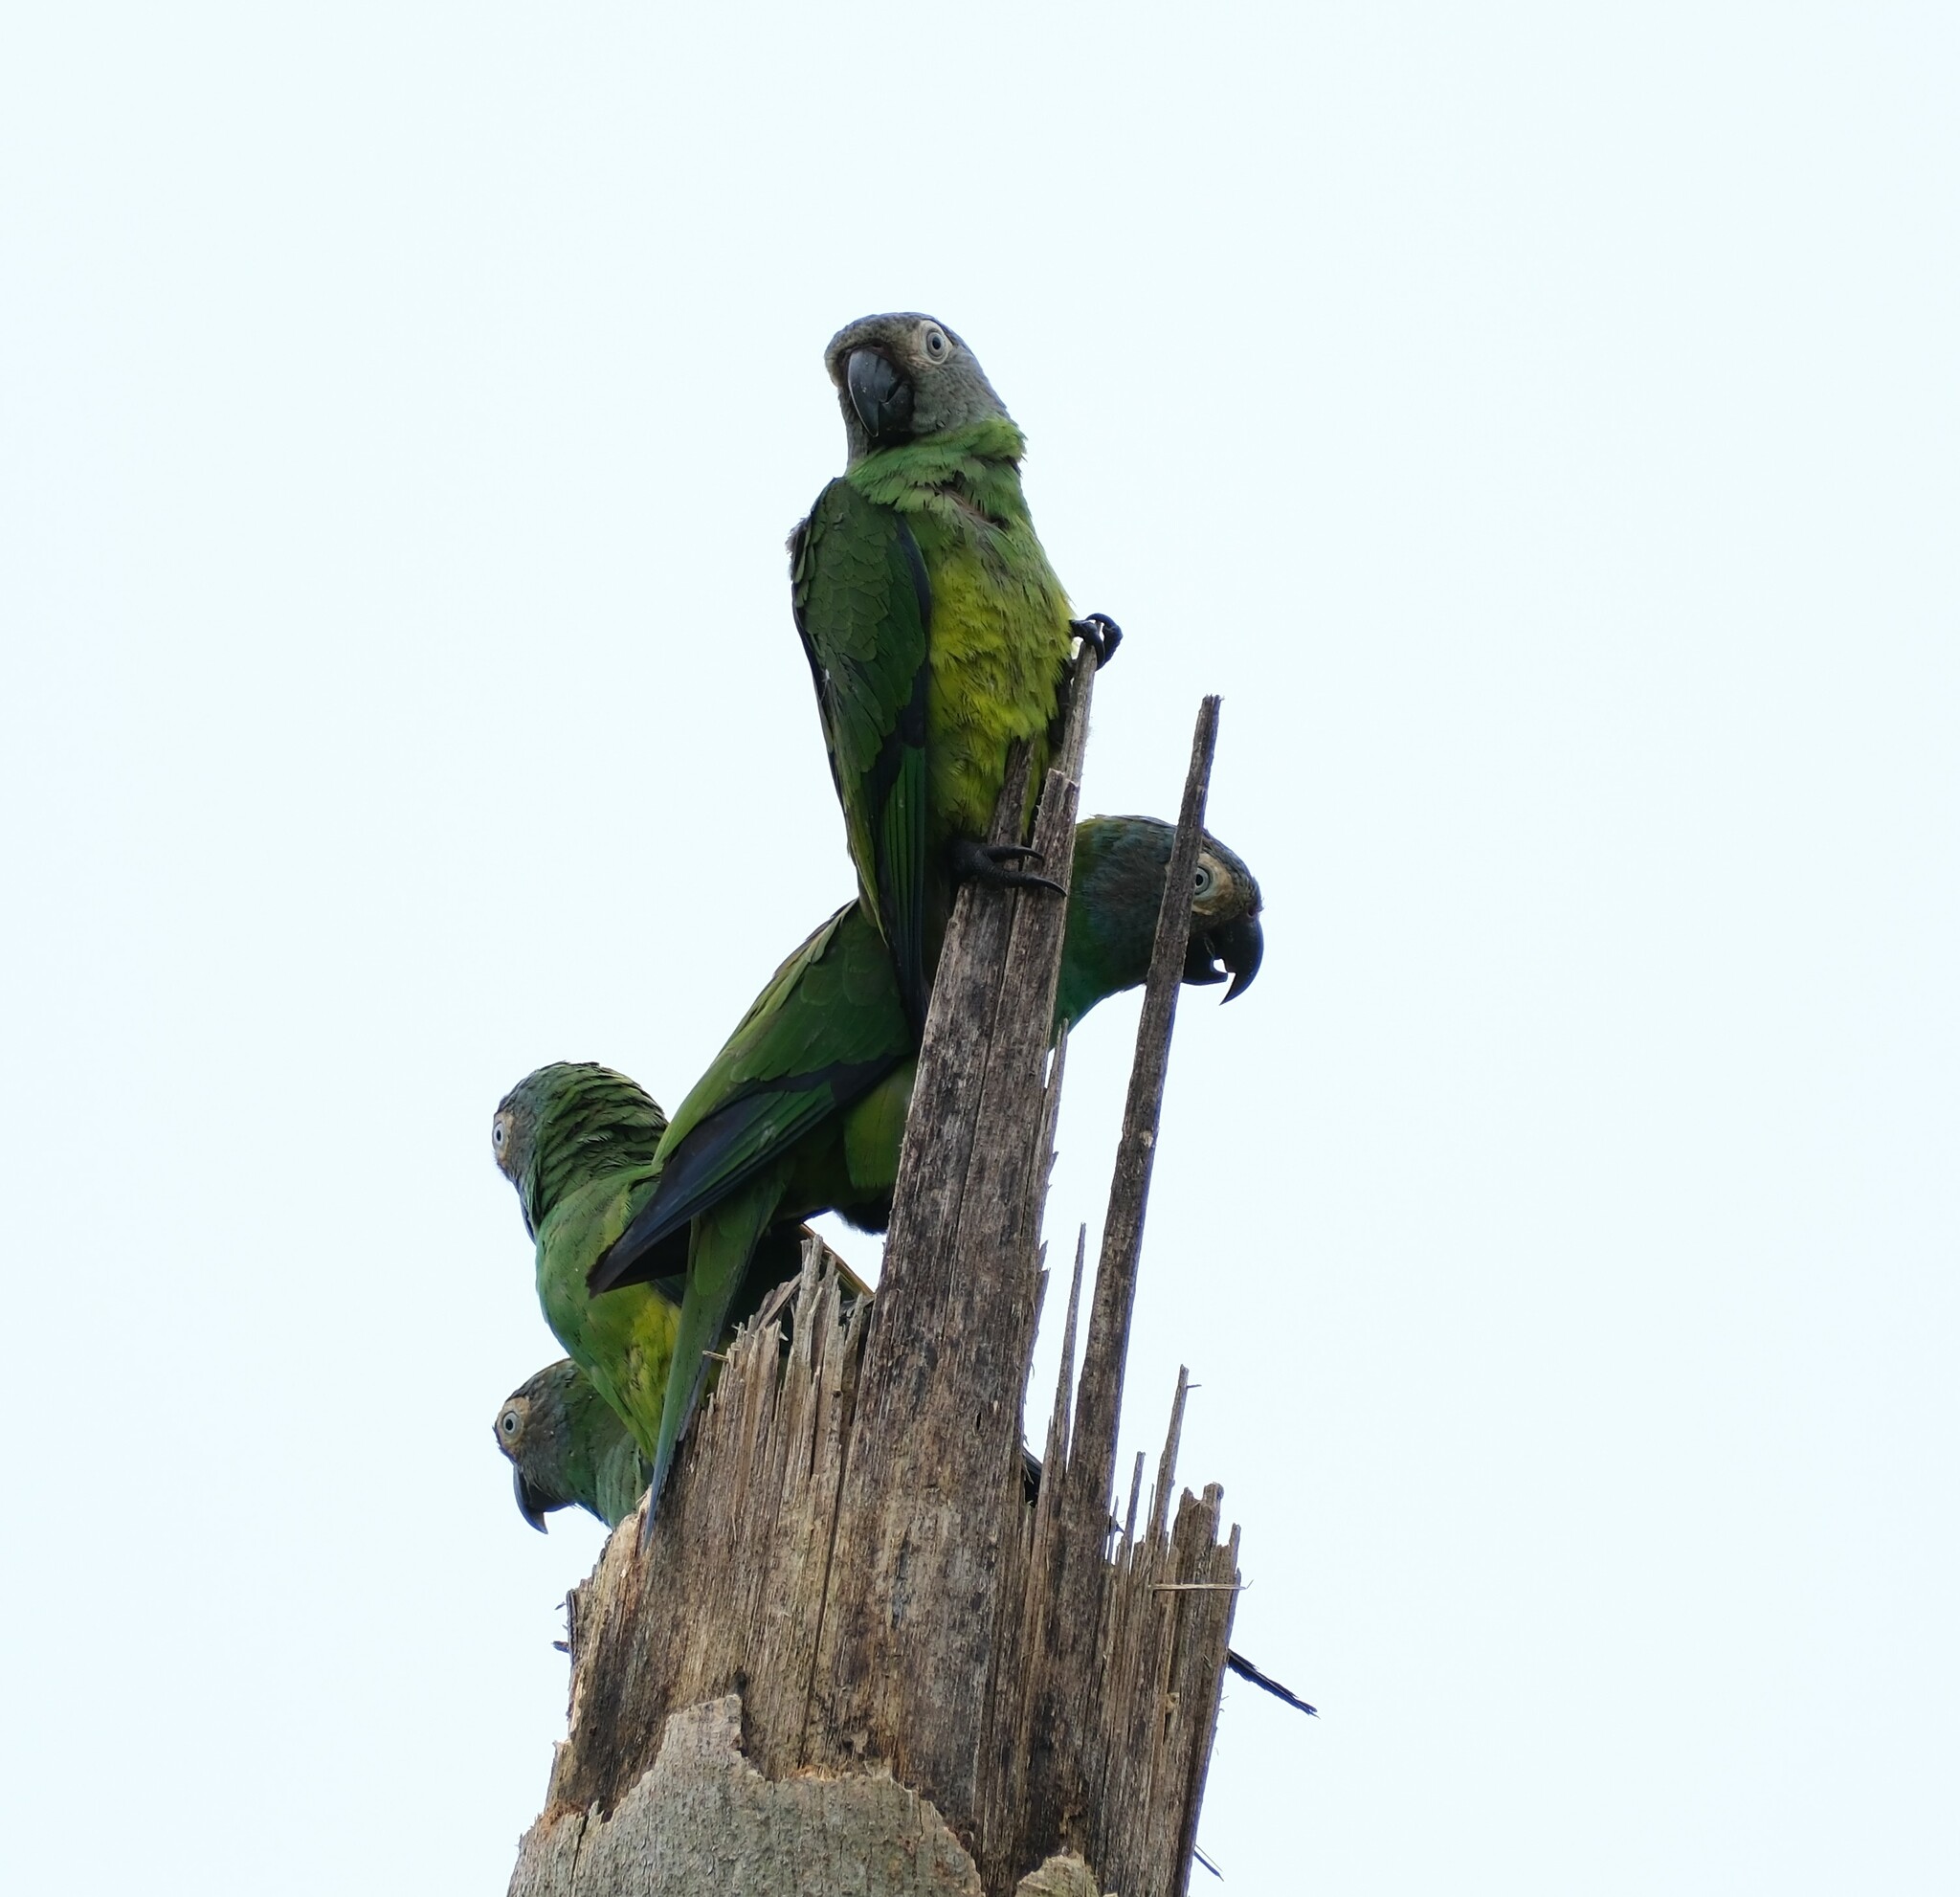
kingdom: Animalia
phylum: Chordata
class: Aves
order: Psittaciformes
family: Psittacidae
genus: Aratinga
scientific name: Aratinga weddellii
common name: Dusky-headed parakeet
